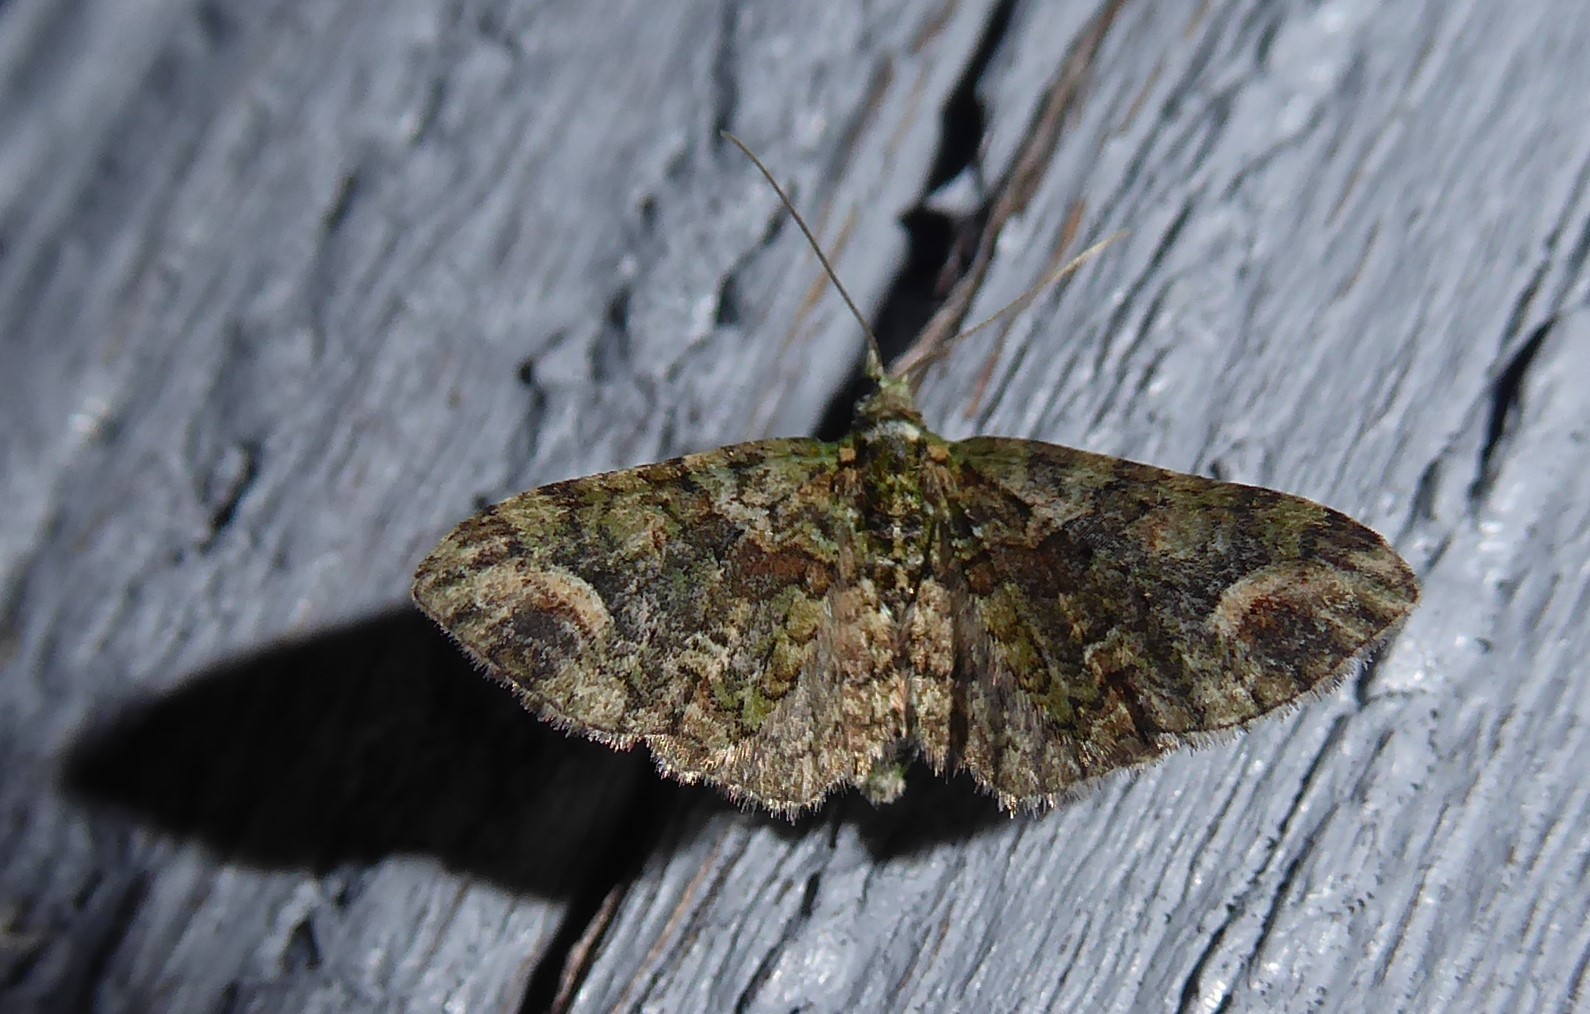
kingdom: Animalia
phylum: Arthropoda
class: Insecta
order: Lepidoptera
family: Geometridae
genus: Idaea
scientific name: Idaea mutanda
